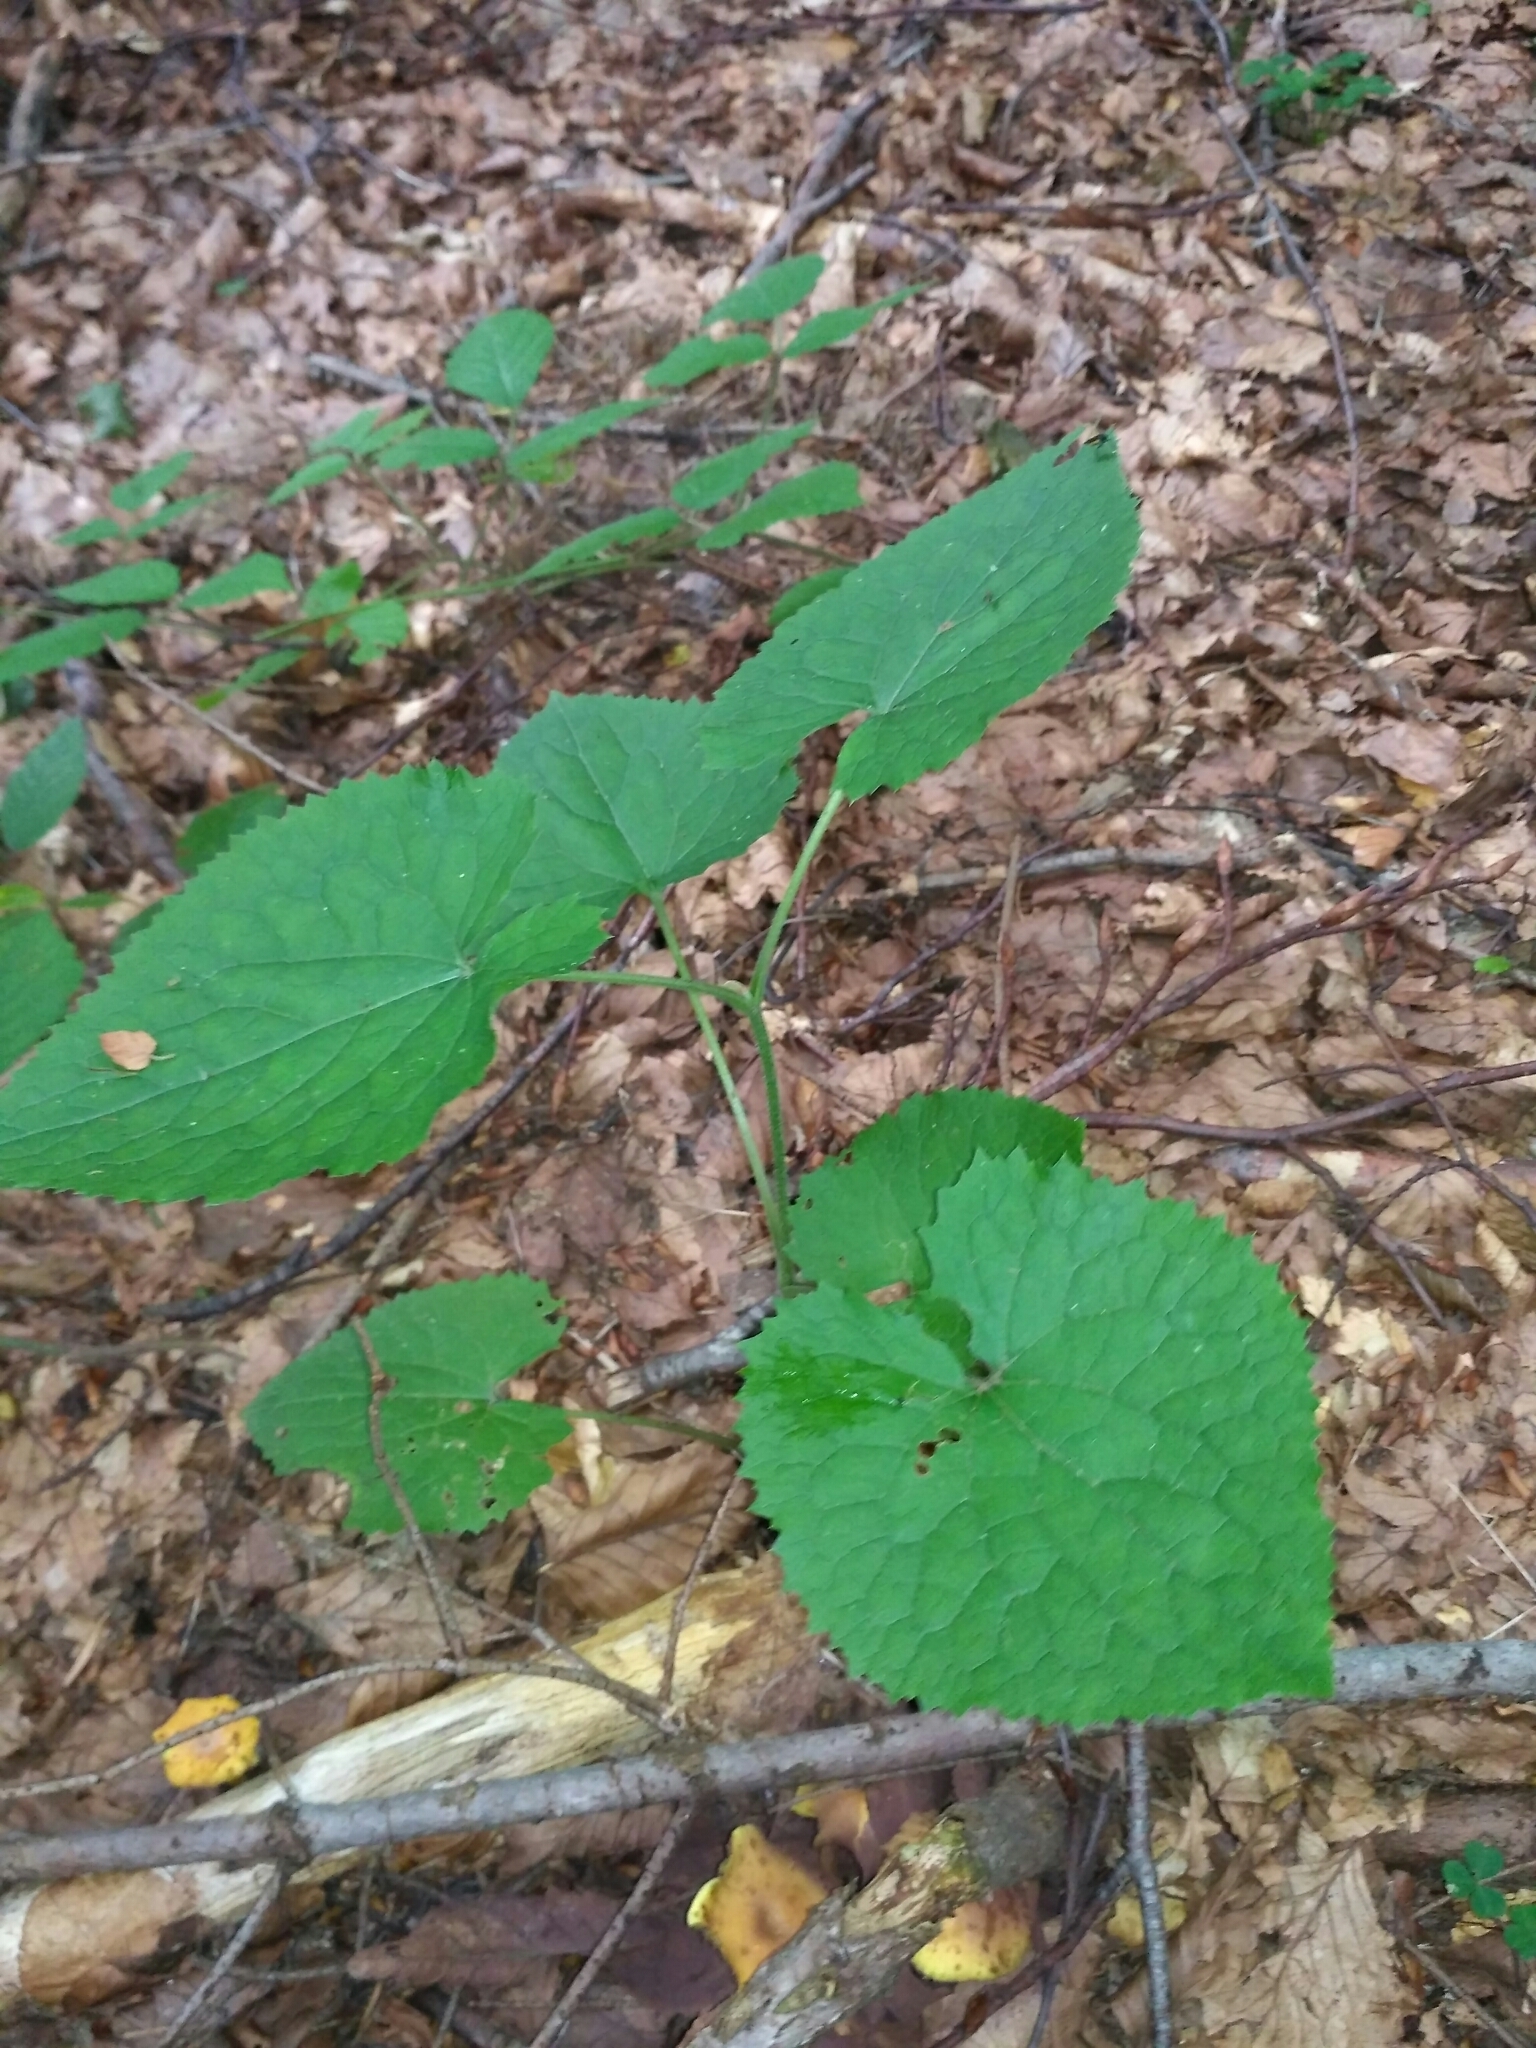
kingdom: Plantae
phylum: Tracheophyta
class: Magnoliopsida
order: Brassicales
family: Brassicaceae
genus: Lunaria
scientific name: Lunaria rediviva
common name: Perennial honesty
